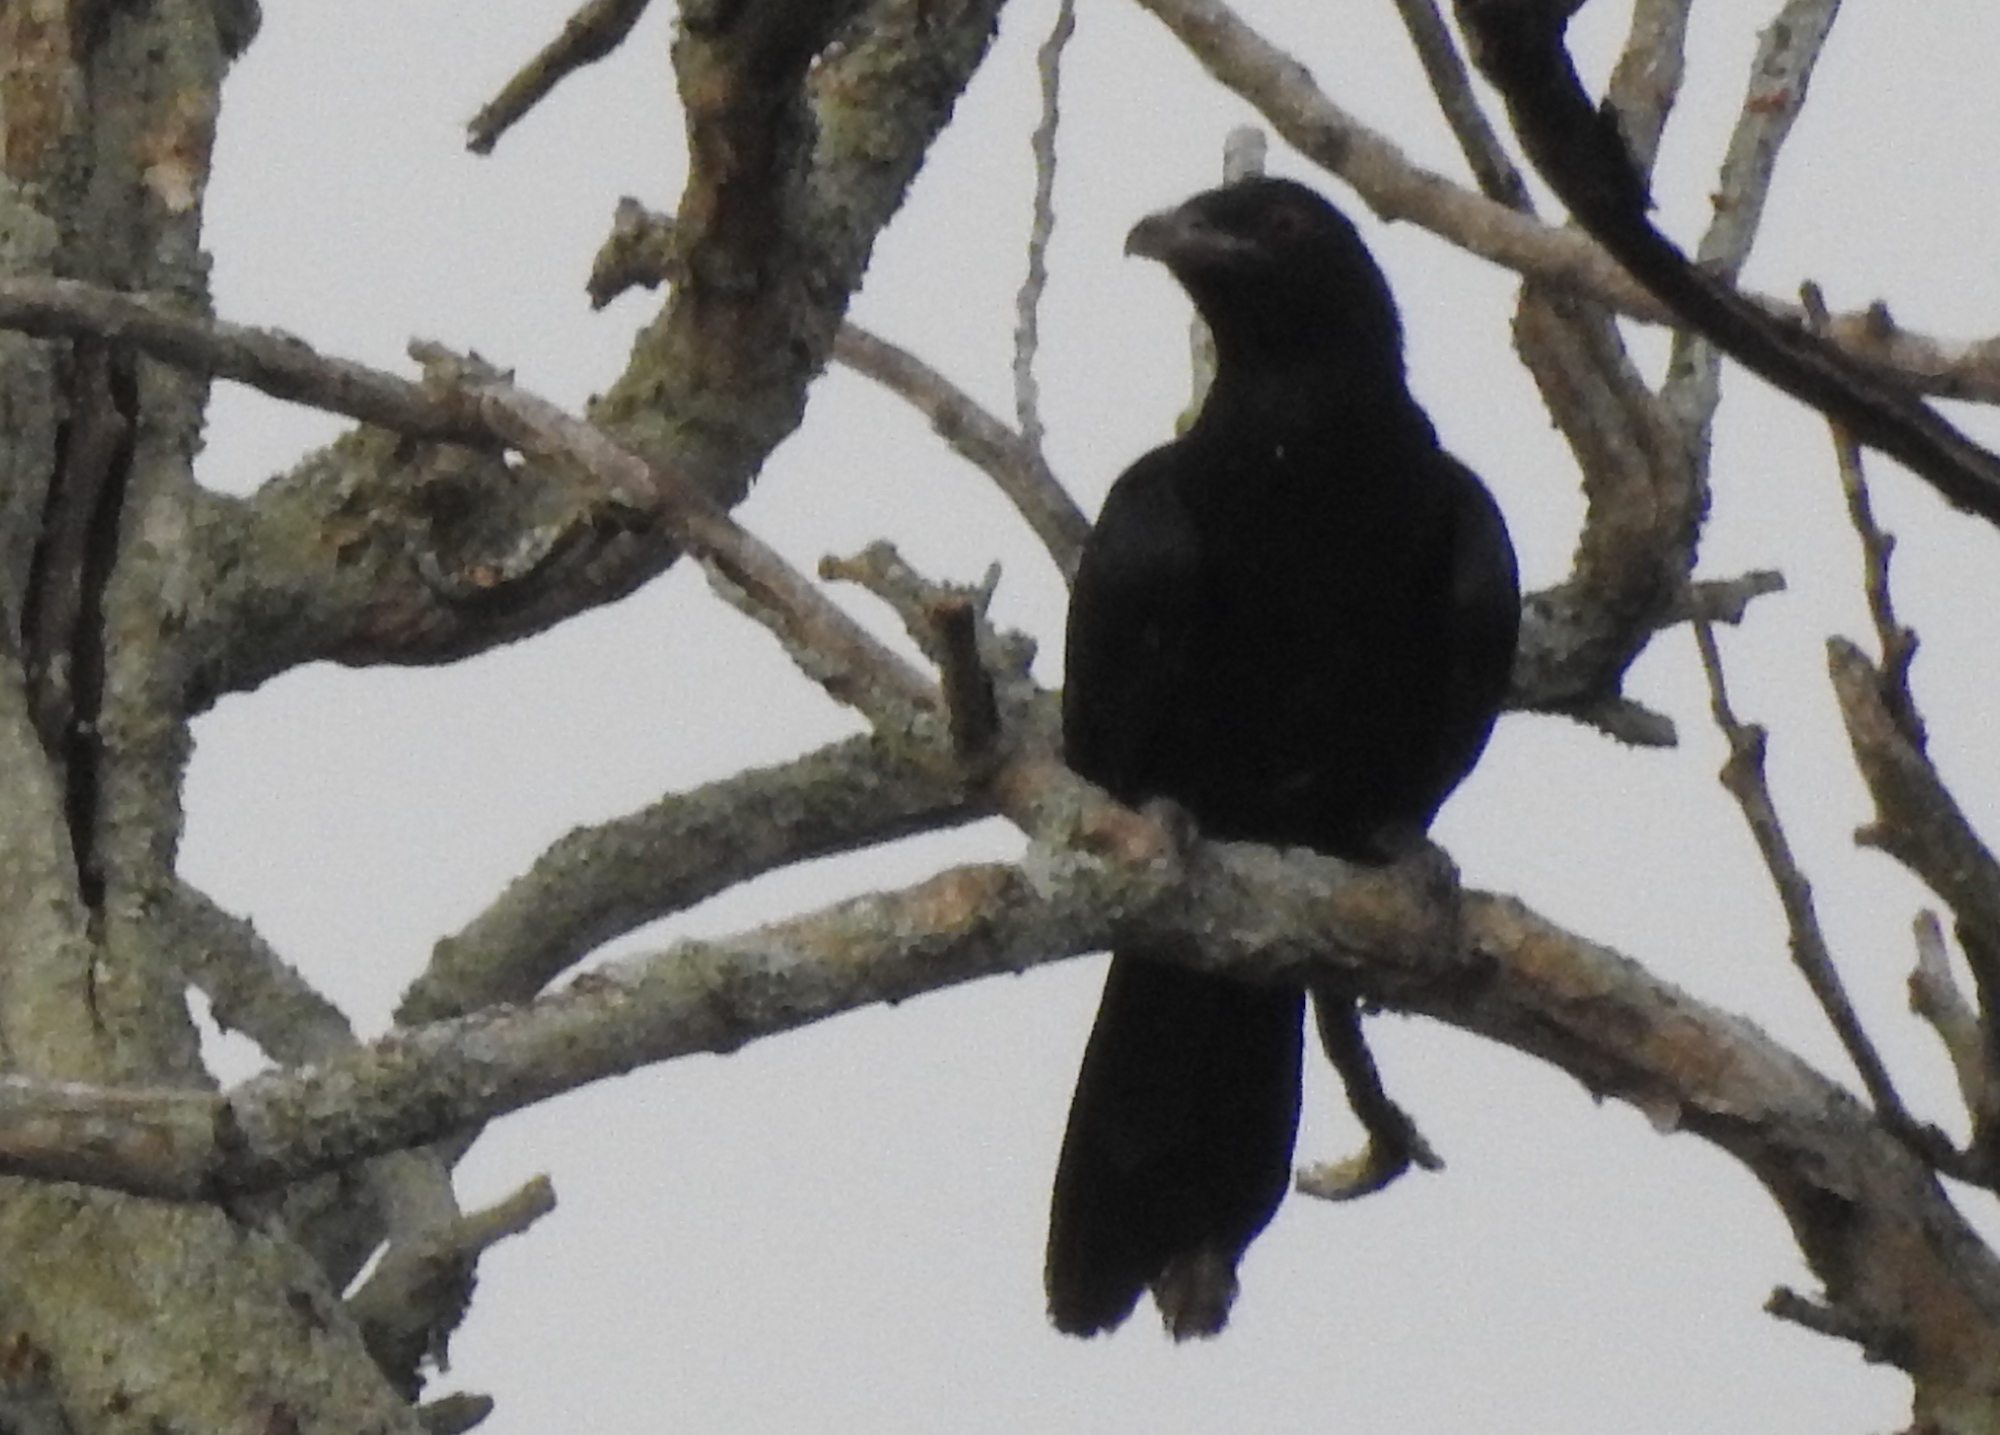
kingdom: Animalia
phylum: Chordata
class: Aves
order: Cuculiformes
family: Cuculidae
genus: Eudynamys
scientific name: Eudynamys scolopaceus
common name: Asian koel
